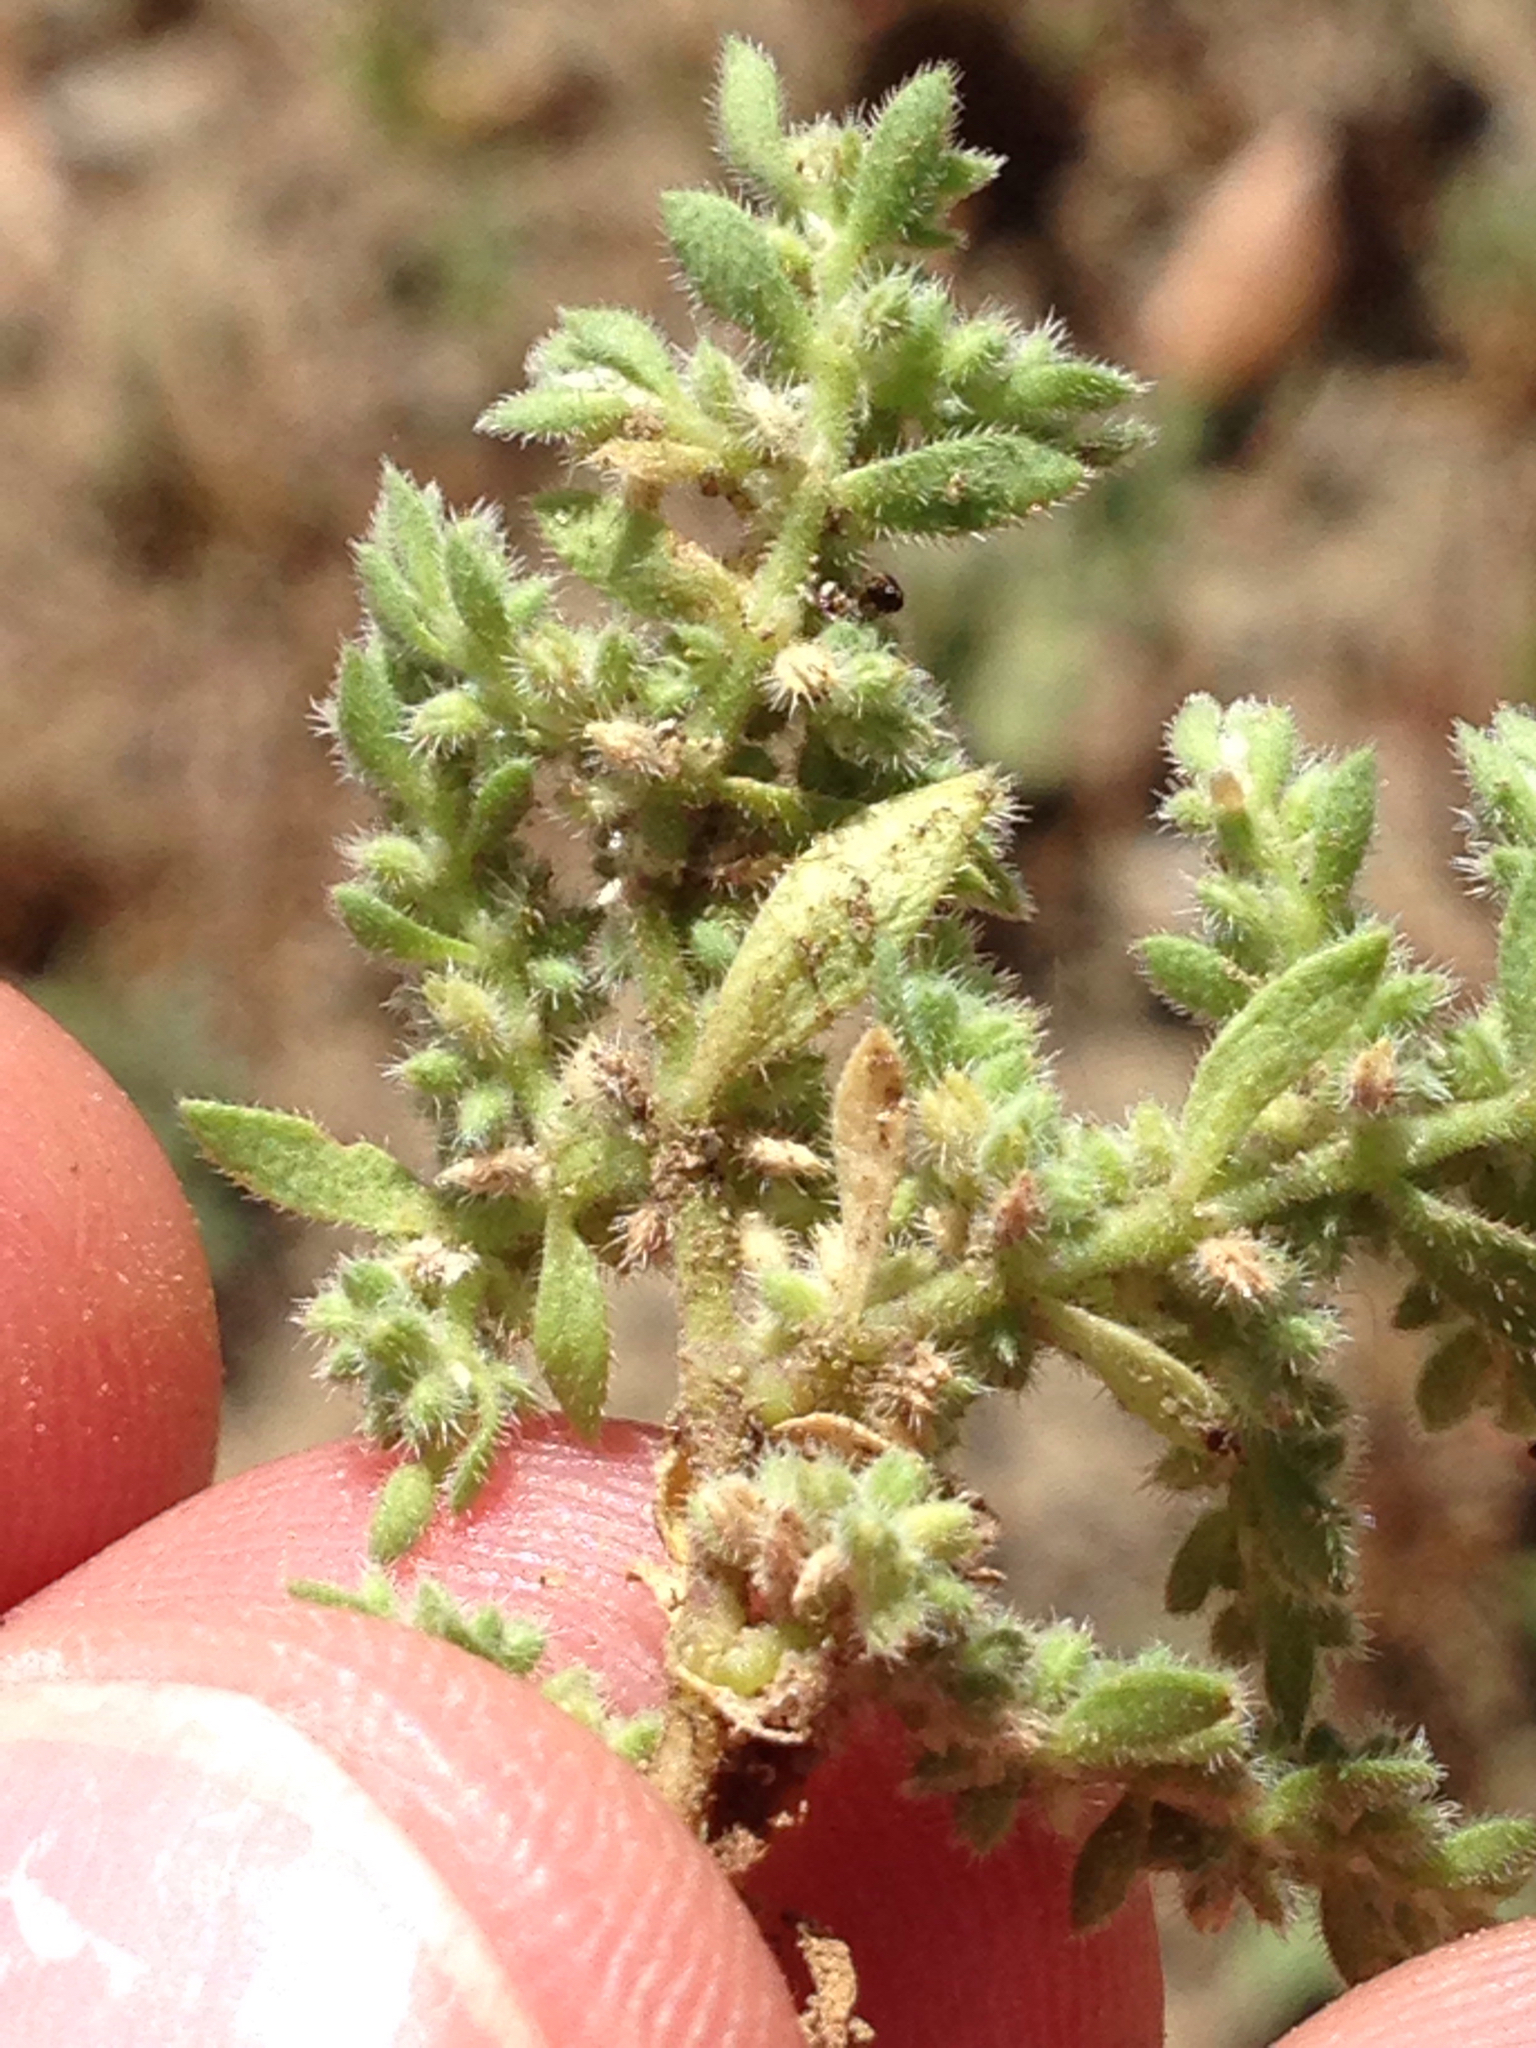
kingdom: Plantae
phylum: Tracheophyta
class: Magnoliopsida
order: Caryophyllales
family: Caryophyllaceae
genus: Herniaria
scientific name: Herniaria hirsuta
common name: Hairy rupturewort
